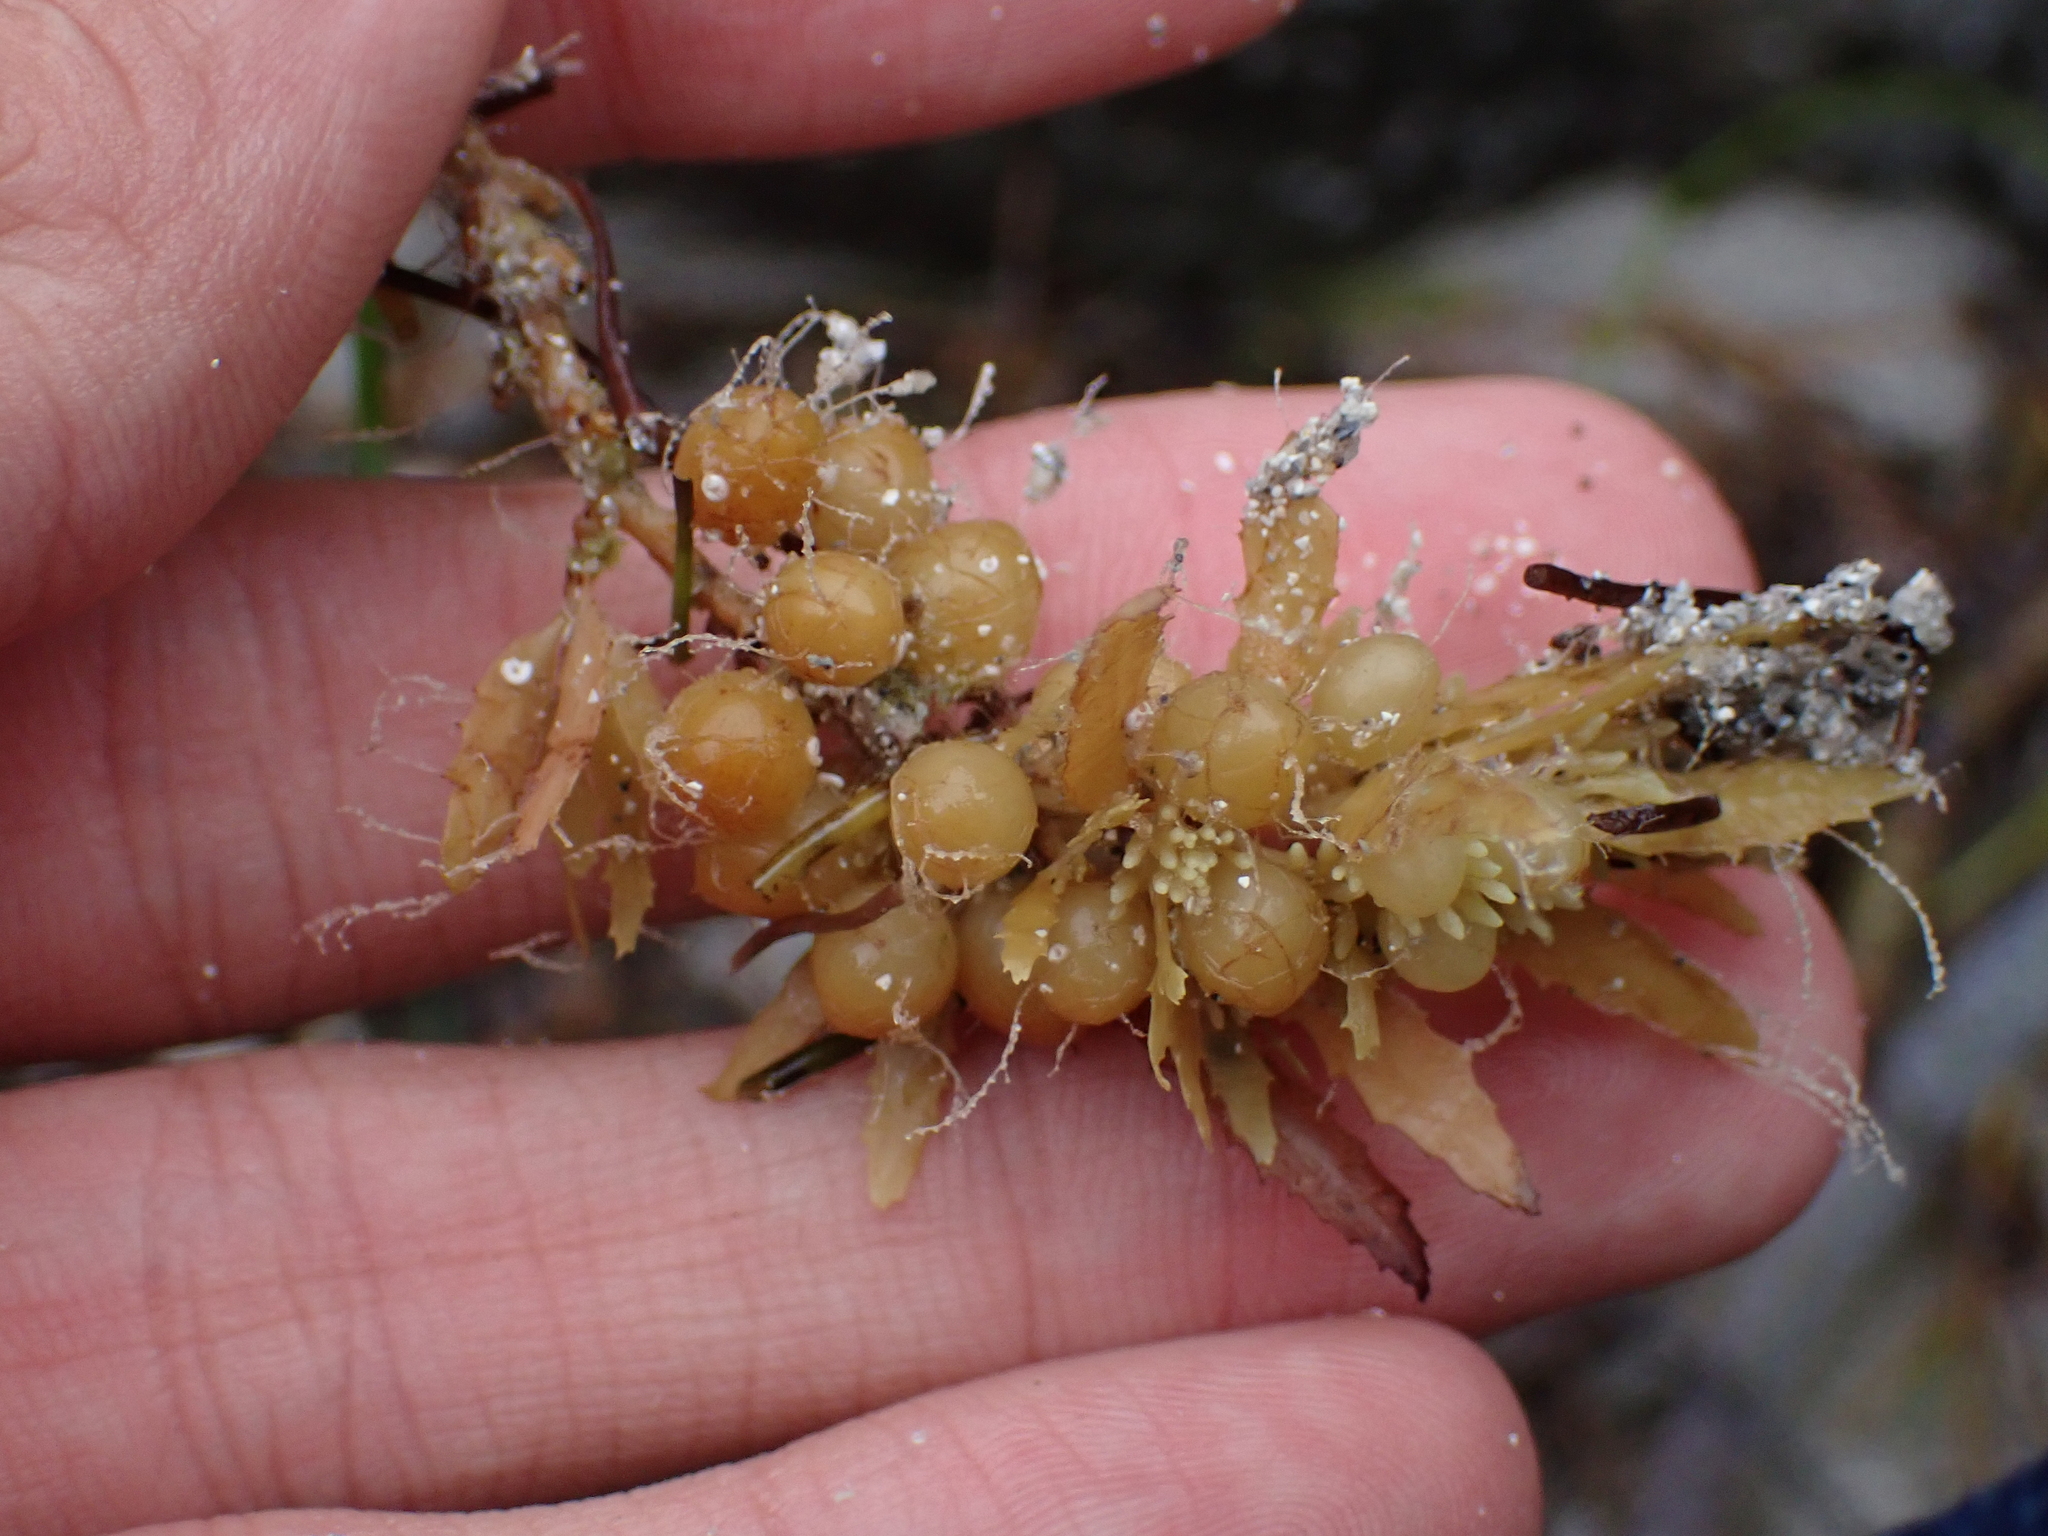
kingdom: Chromista
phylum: Ochrophyta
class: Phaeophyceae
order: Fucales
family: Sargassaceae
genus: Sargassum
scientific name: Sargassum fluitans
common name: Sargassum seaweed
